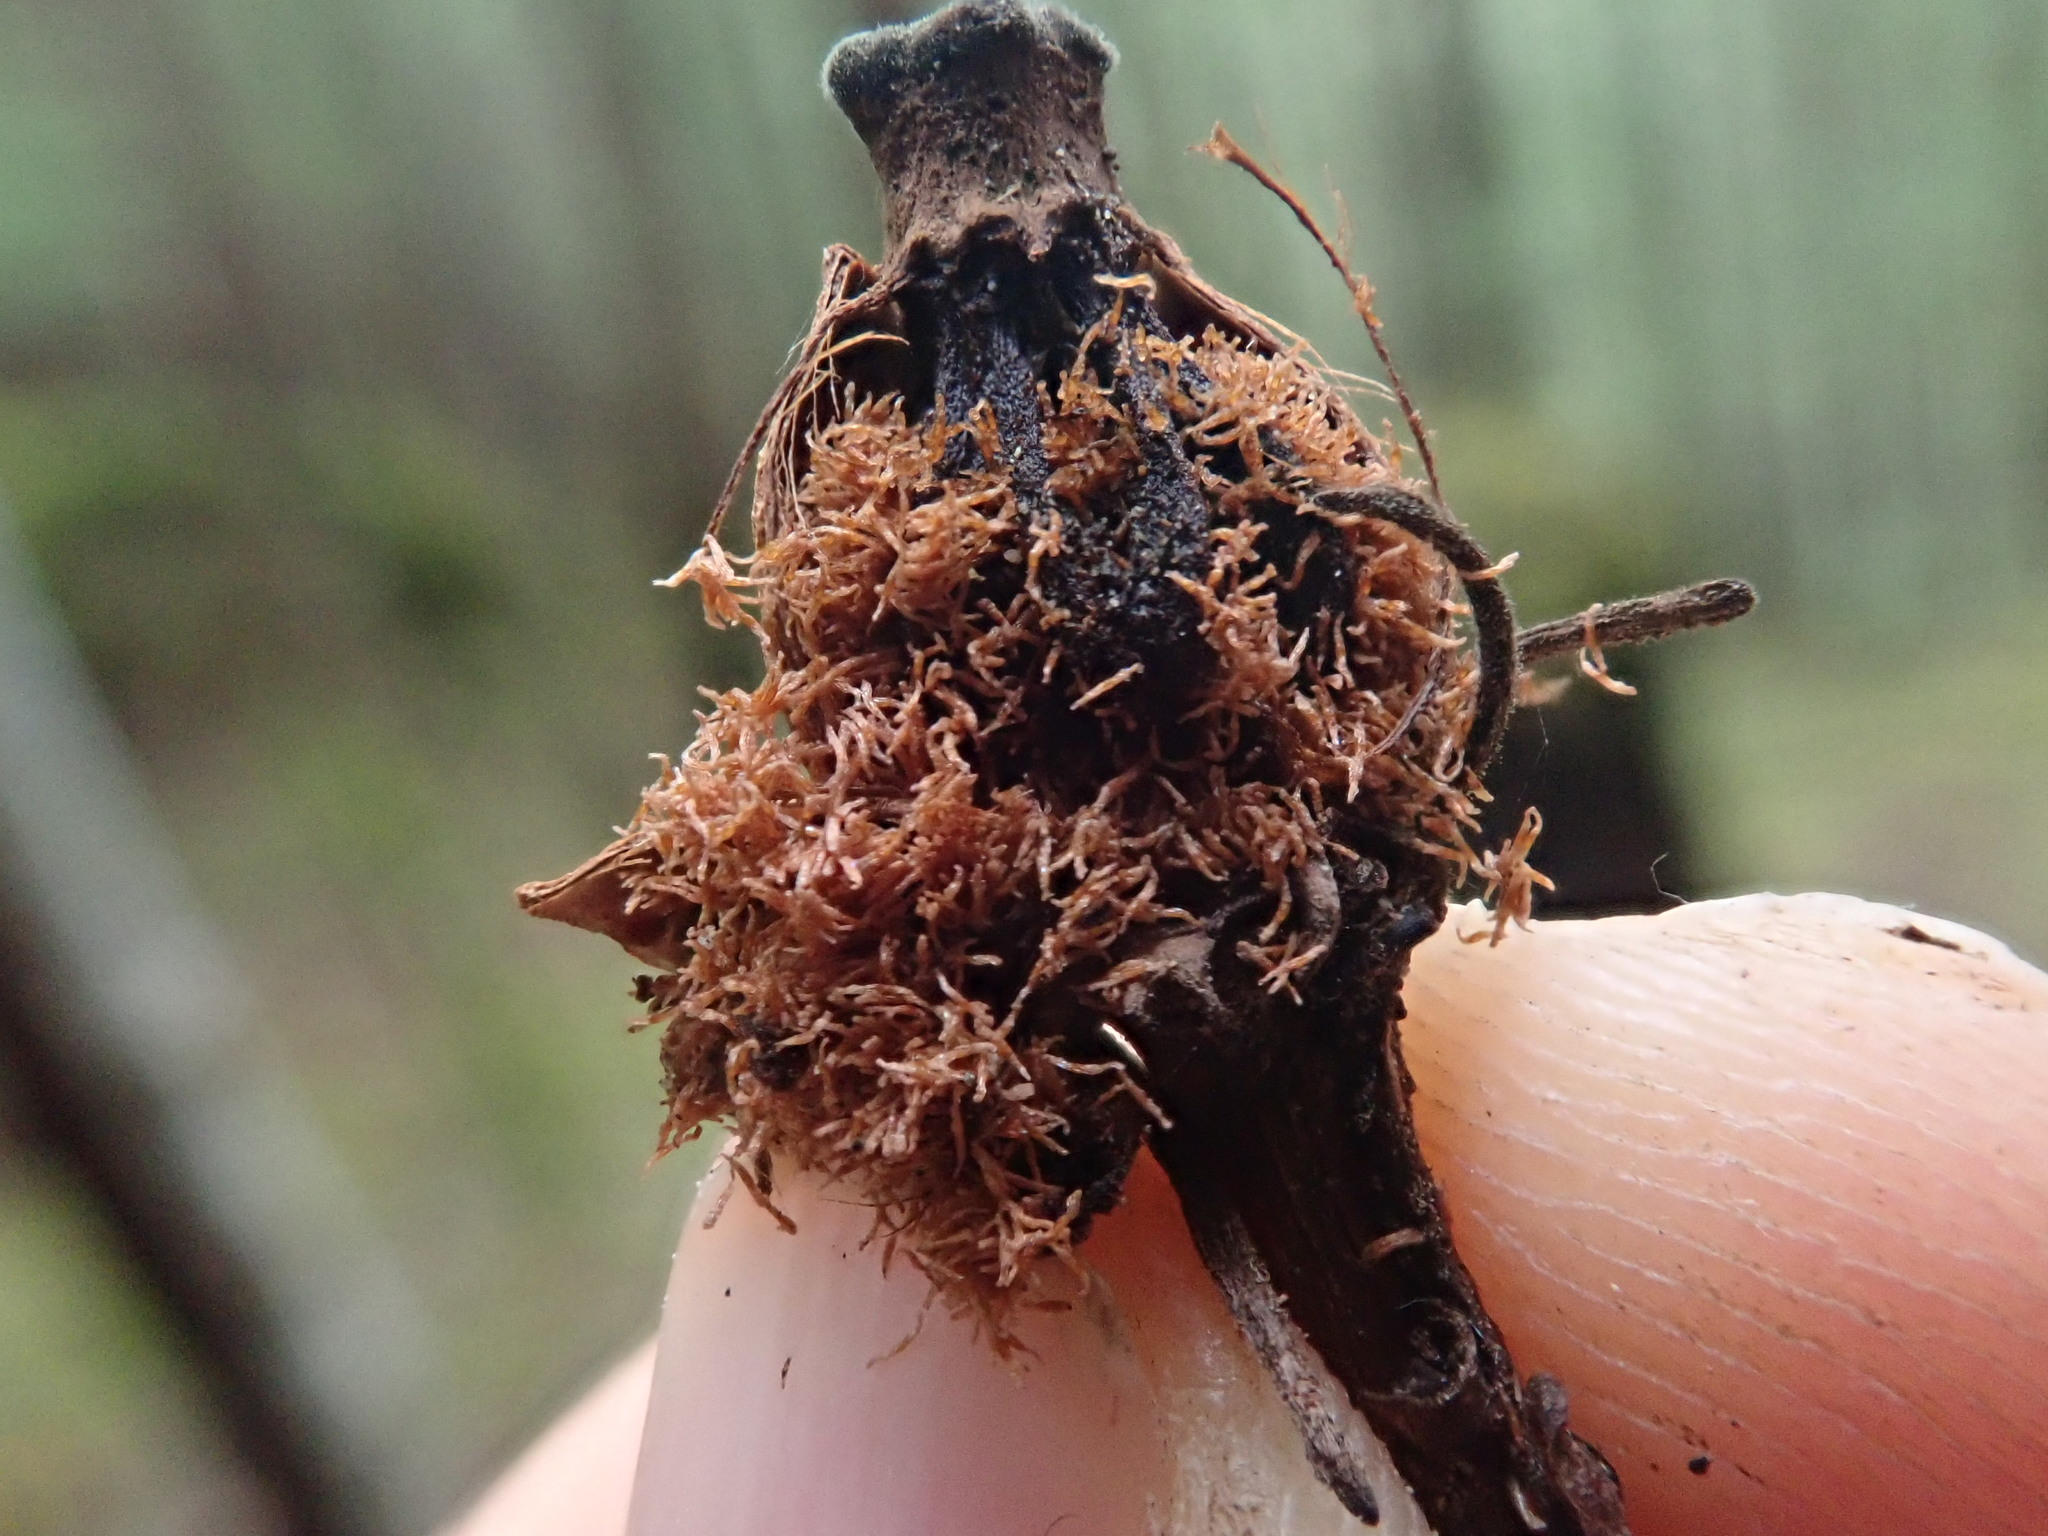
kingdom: Plantae
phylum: Tracheophyta
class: Magnoliopsida
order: Ericales
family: Ericaceae
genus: Monotropa
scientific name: Monotropa uniflora
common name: Convulsion root
